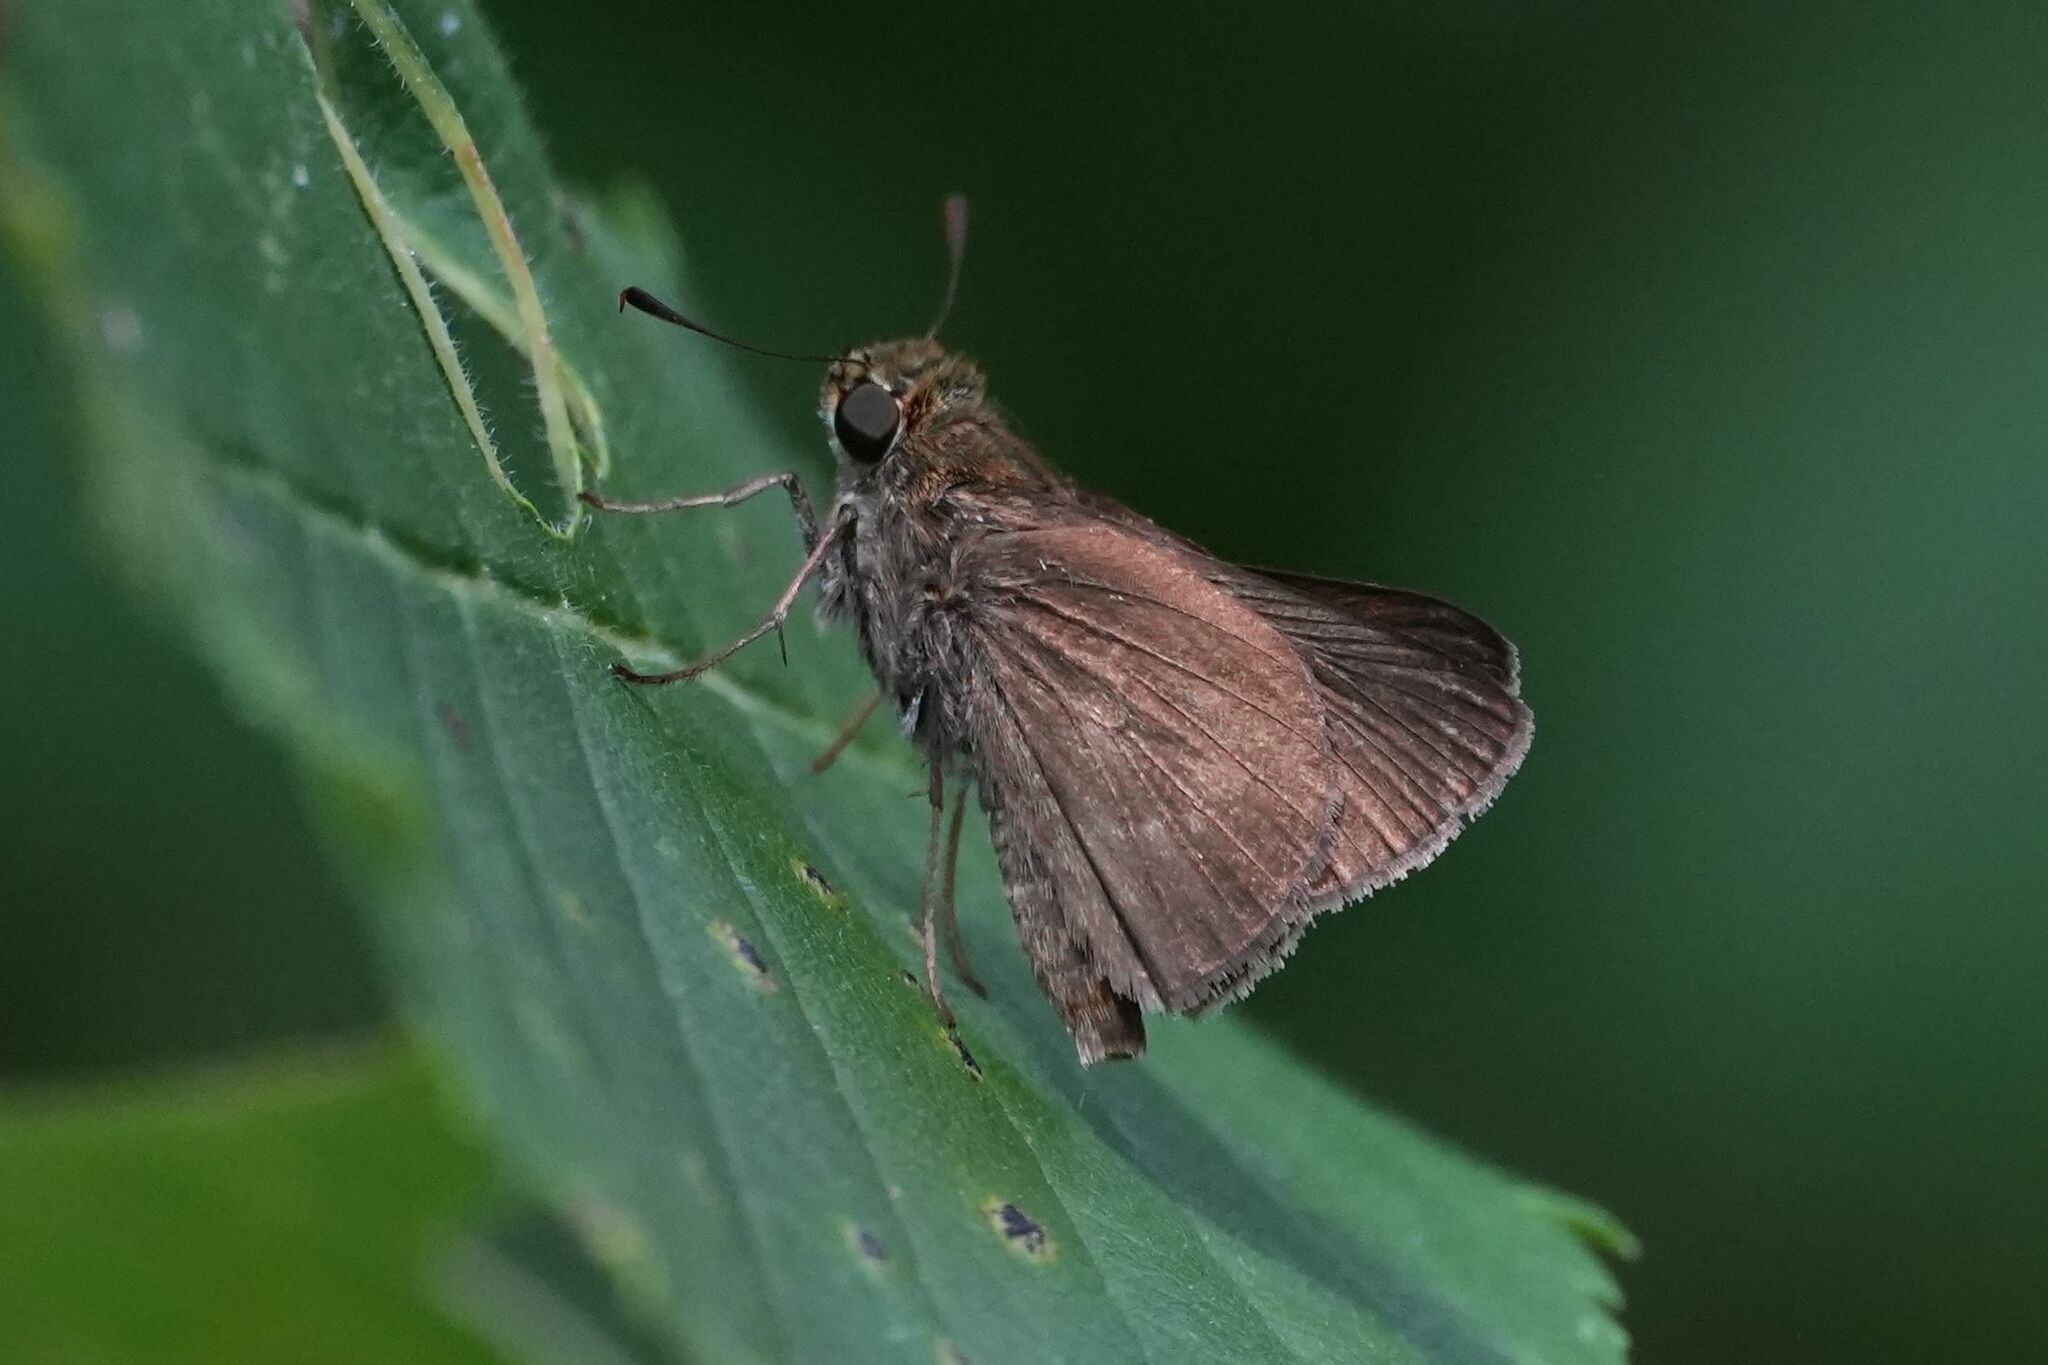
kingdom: Animalia
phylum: Arthropoda
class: Insecta
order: Lepidoptera
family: Hesperiidae
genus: Euphyes
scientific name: Euphyes vestris
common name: Dun skipper
